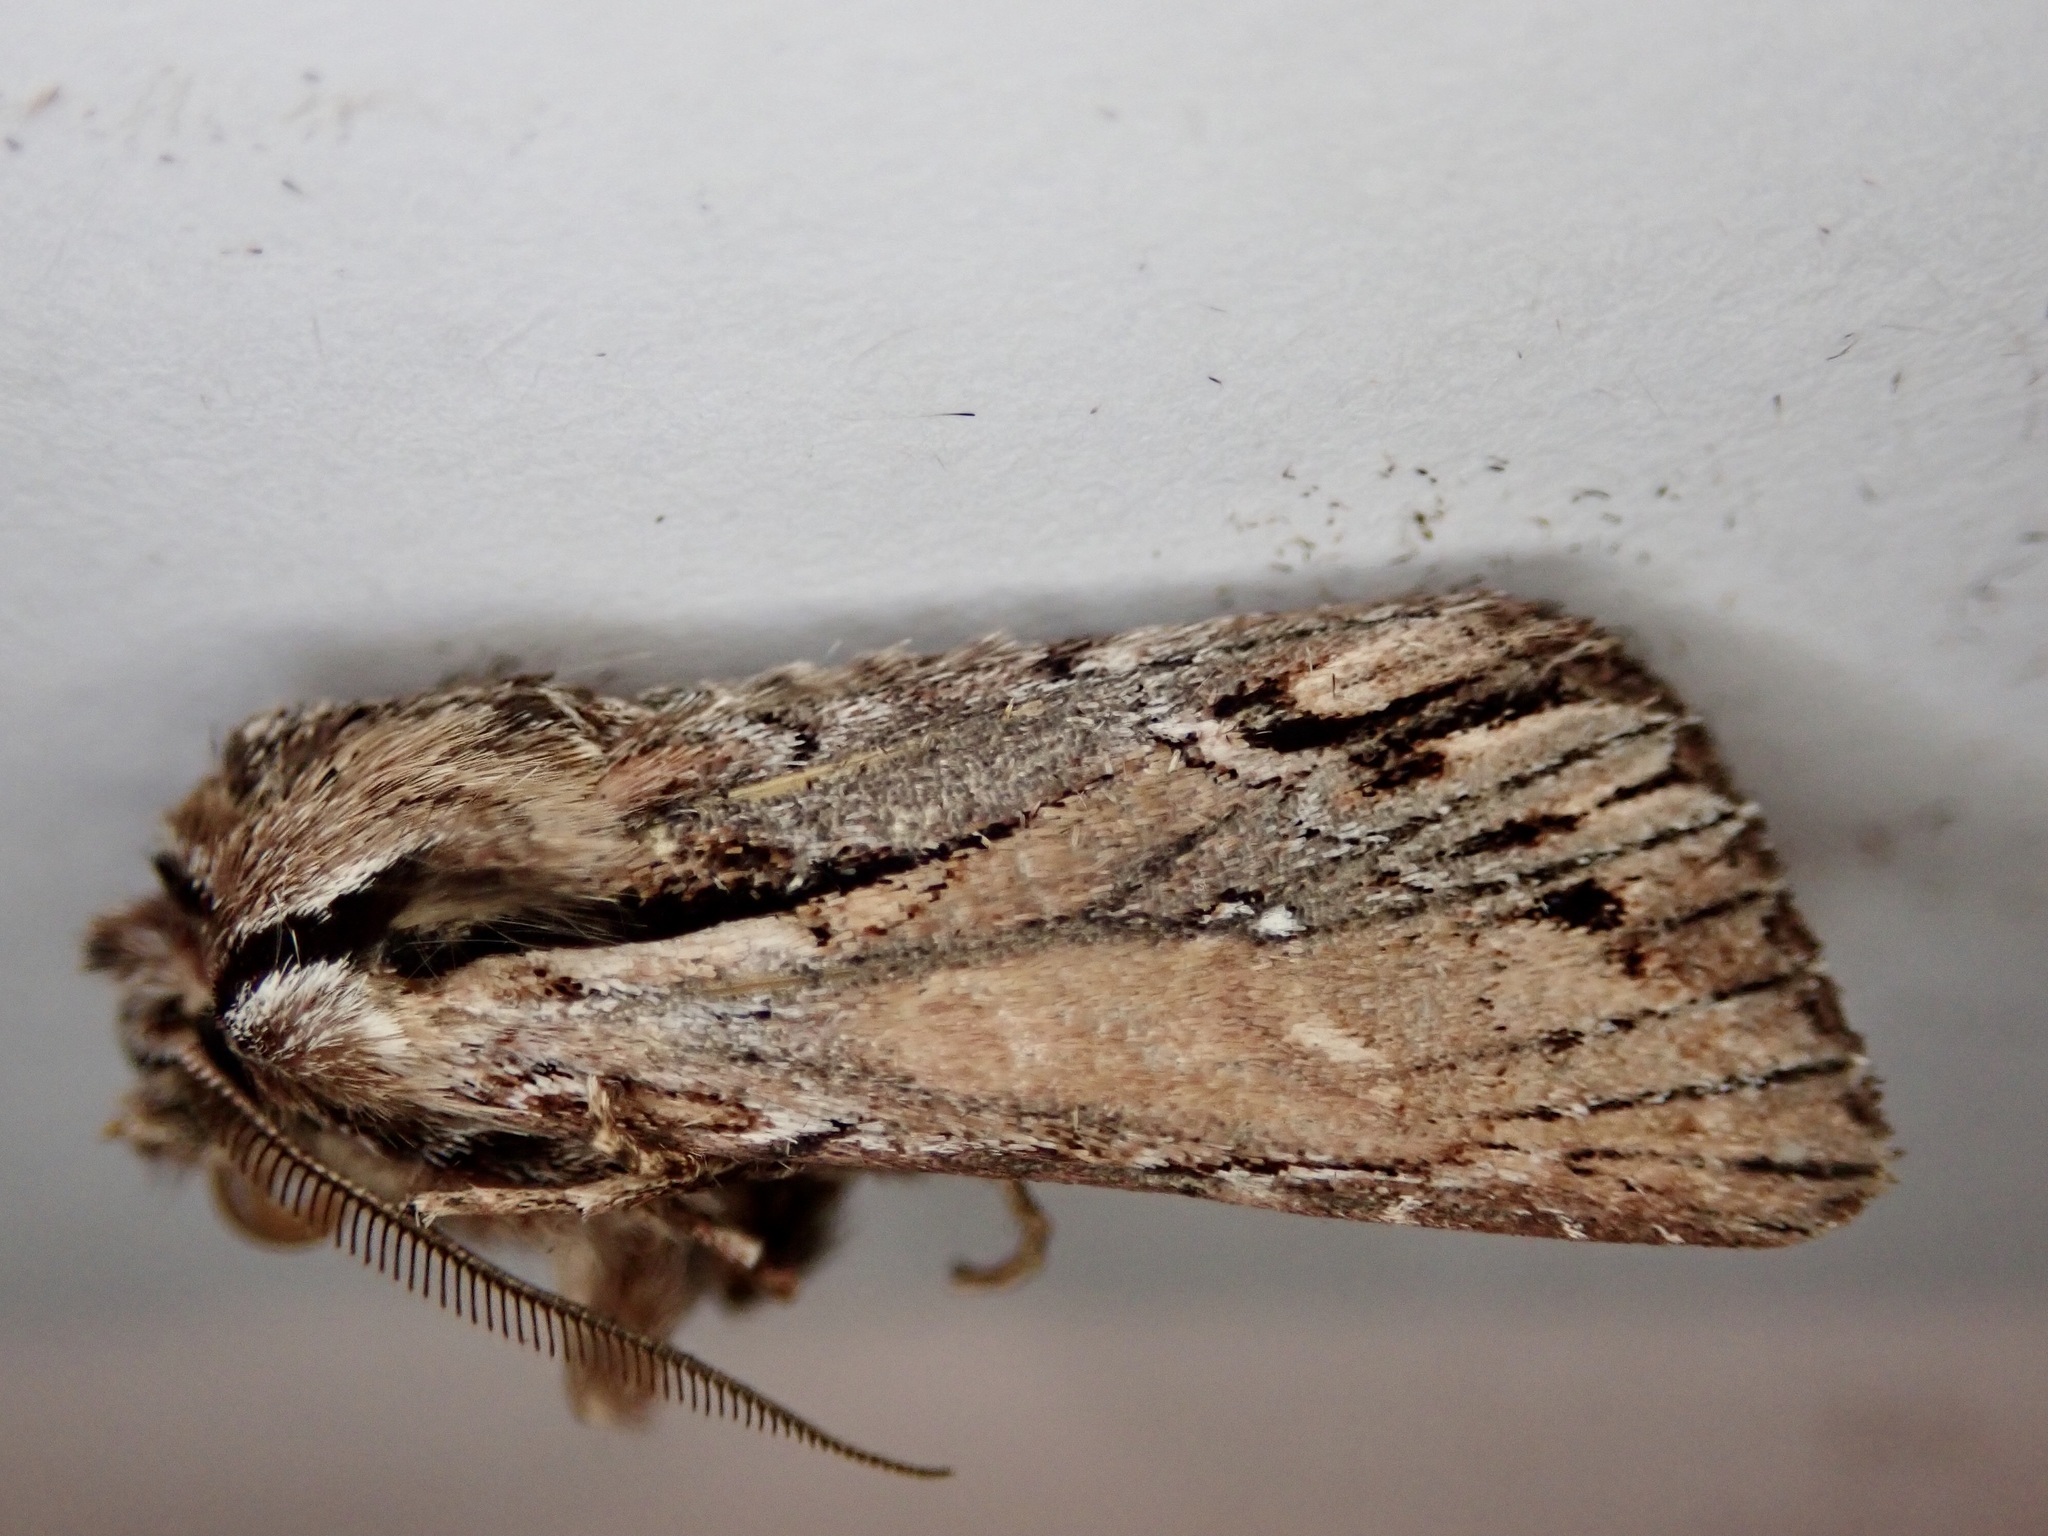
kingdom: Animalia
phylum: Arthropoda
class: Insecta
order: Lepidoptera
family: Noctuidae
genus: Ichneutica
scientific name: Ichneutica
